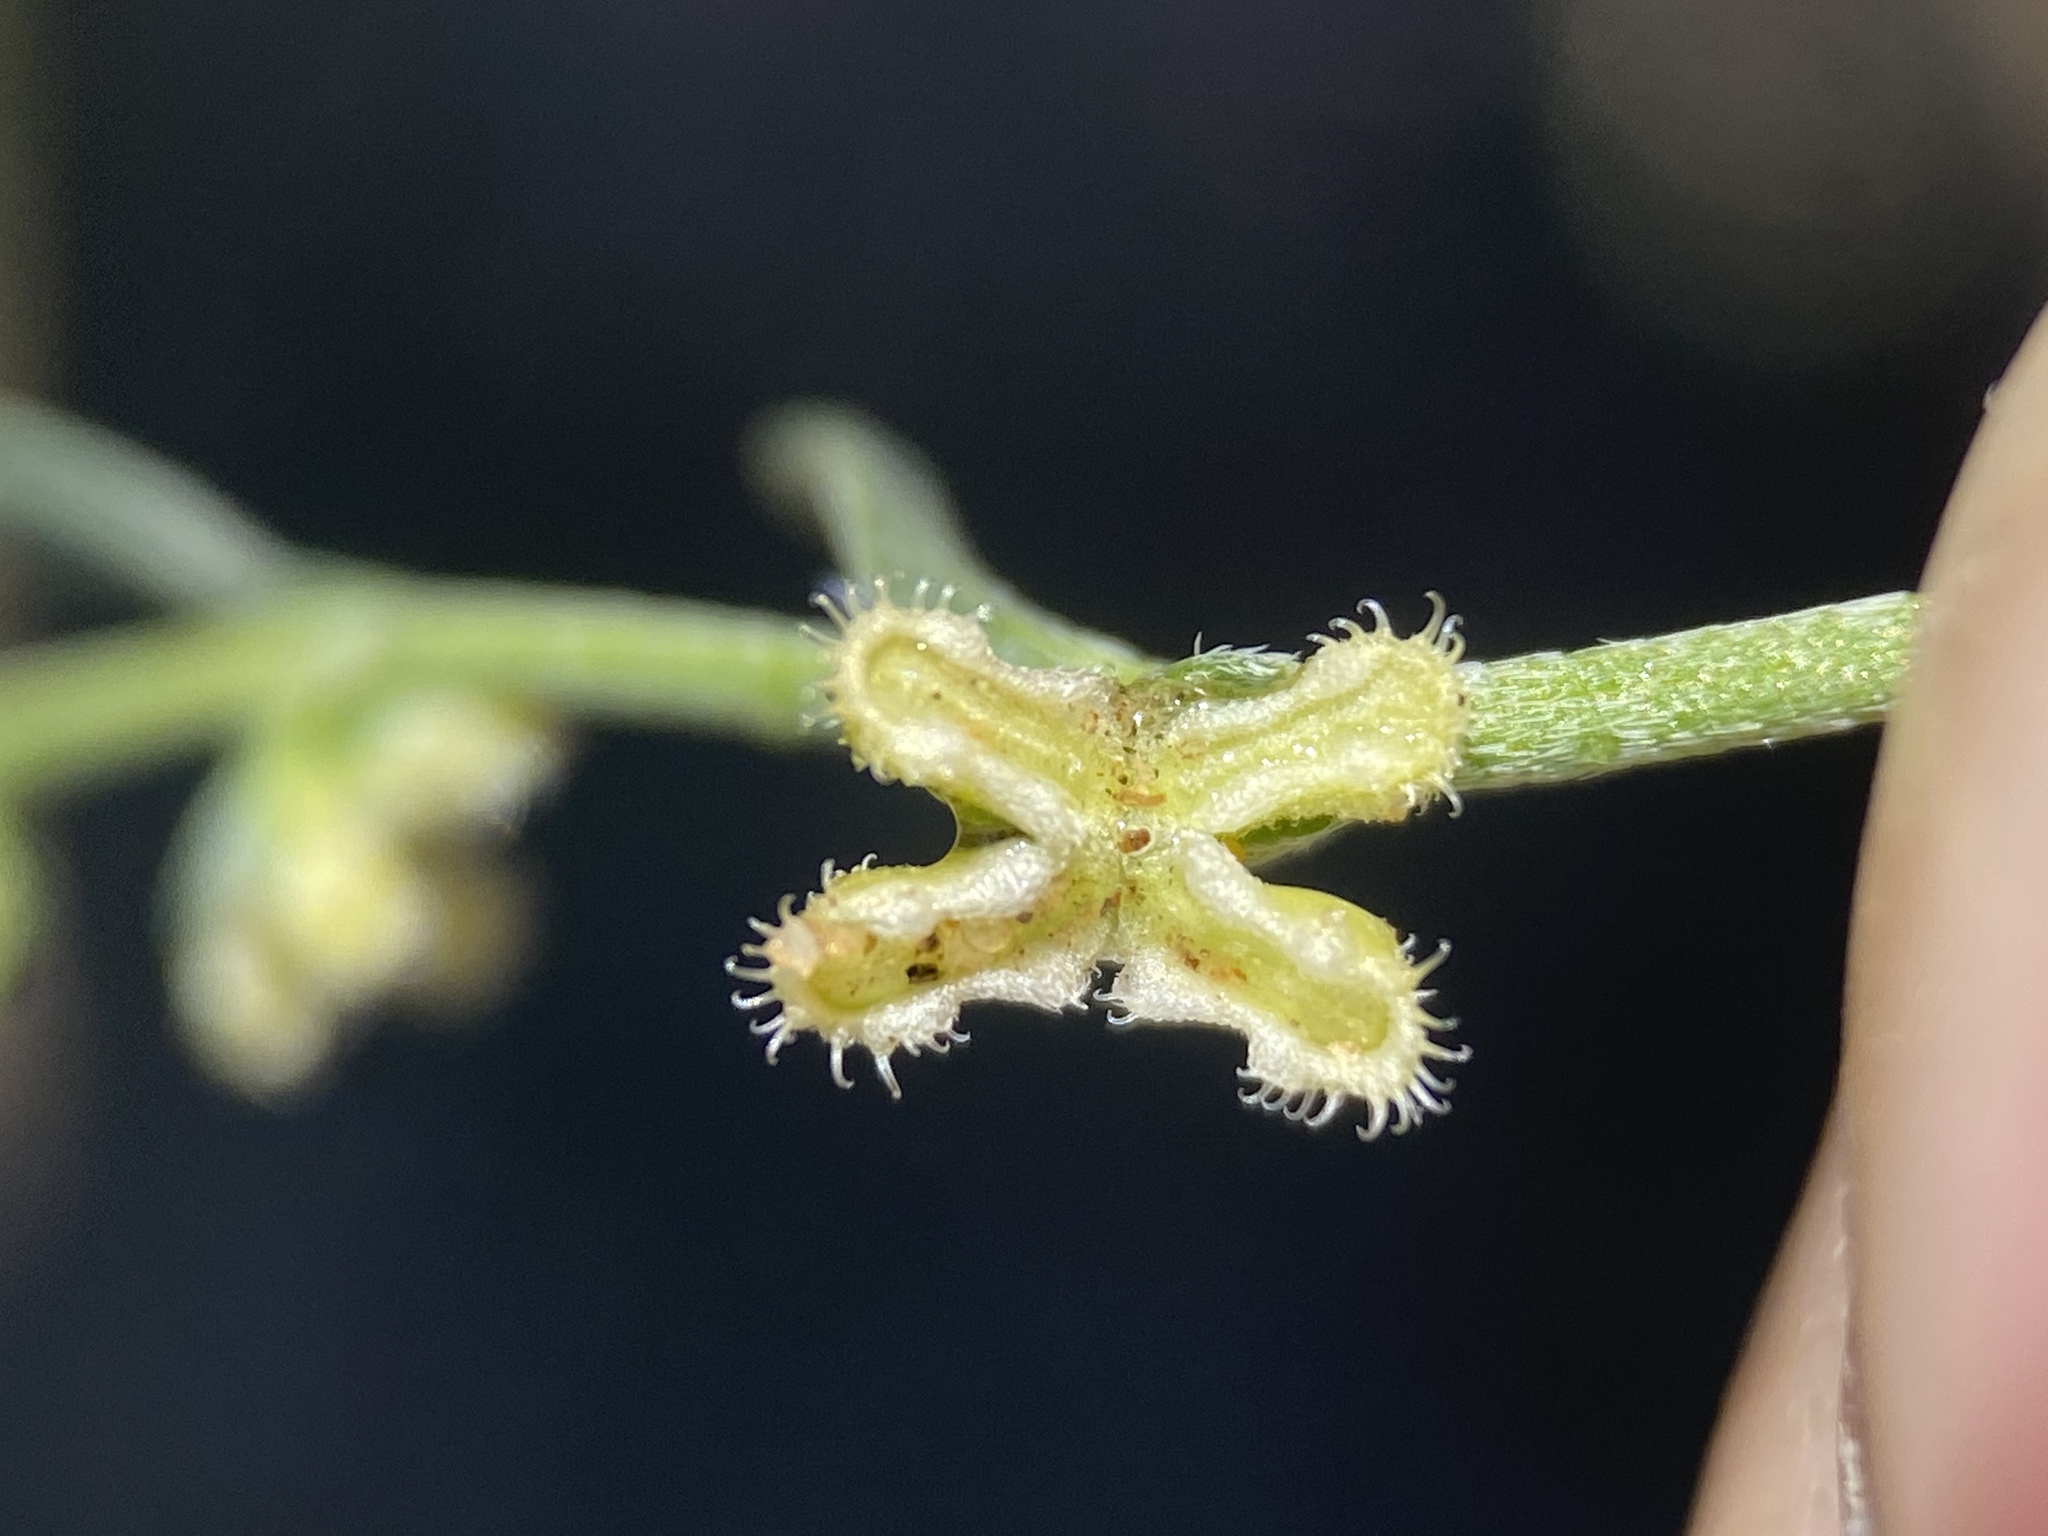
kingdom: Plantae
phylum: Tracheophyta
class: Magnoliopsida
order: Boraginales
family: Boraginaceae
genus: Pectocarya
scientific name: Pectocarya penicillata
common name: Short-leaved combseed
